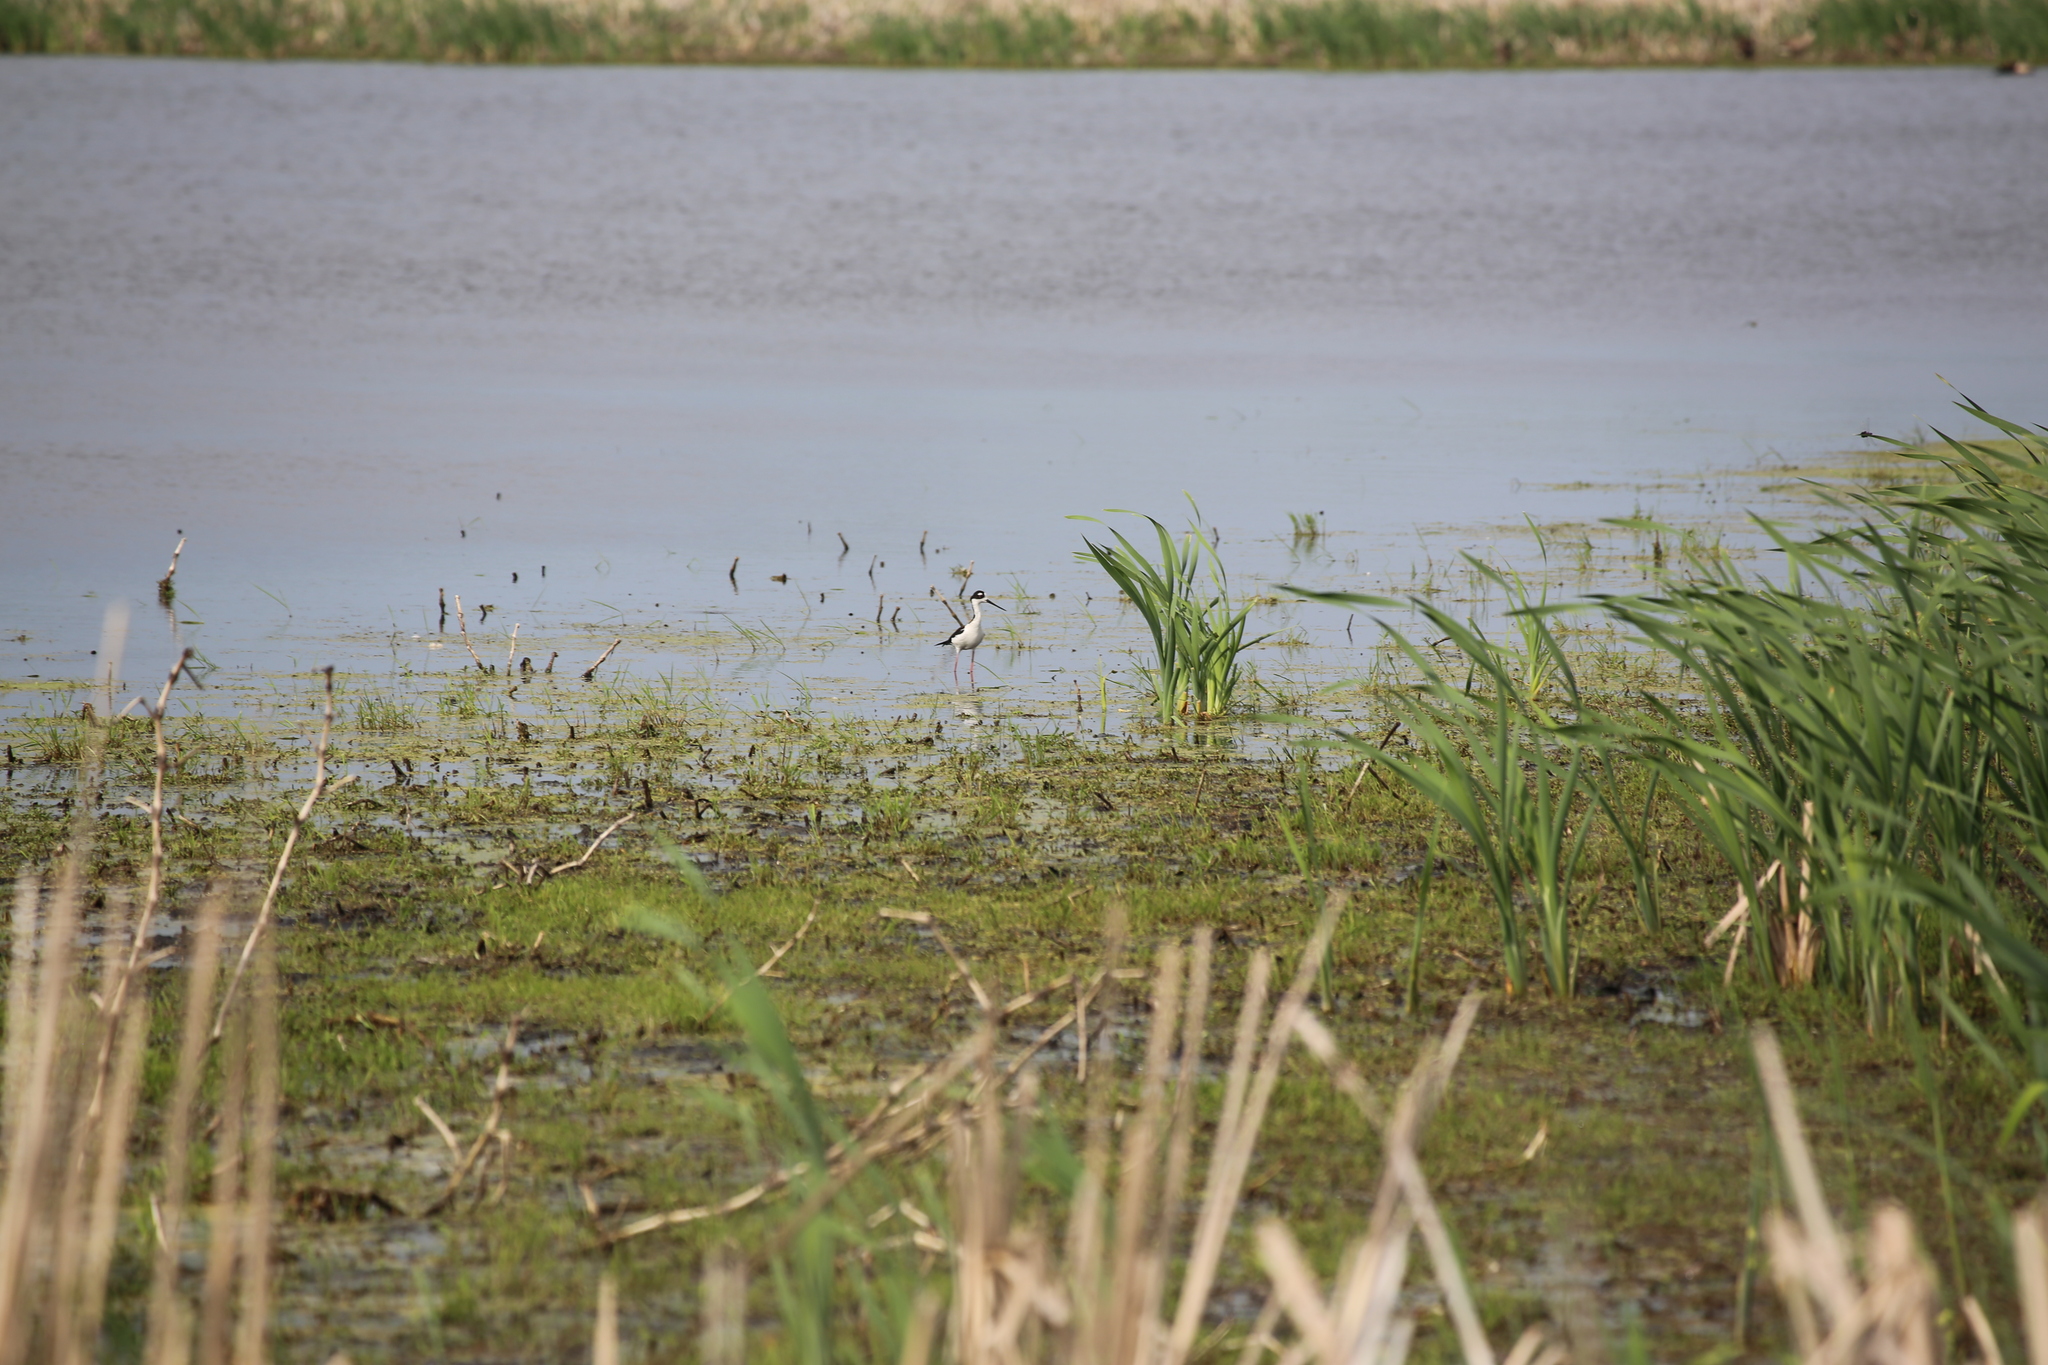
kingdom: Animalia
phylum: Chordata
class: Aves
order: Charadriiformes
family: Recurvirostridae
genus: Himantopus
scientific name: Himantopus mexicanus
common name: Black-necked stilt
